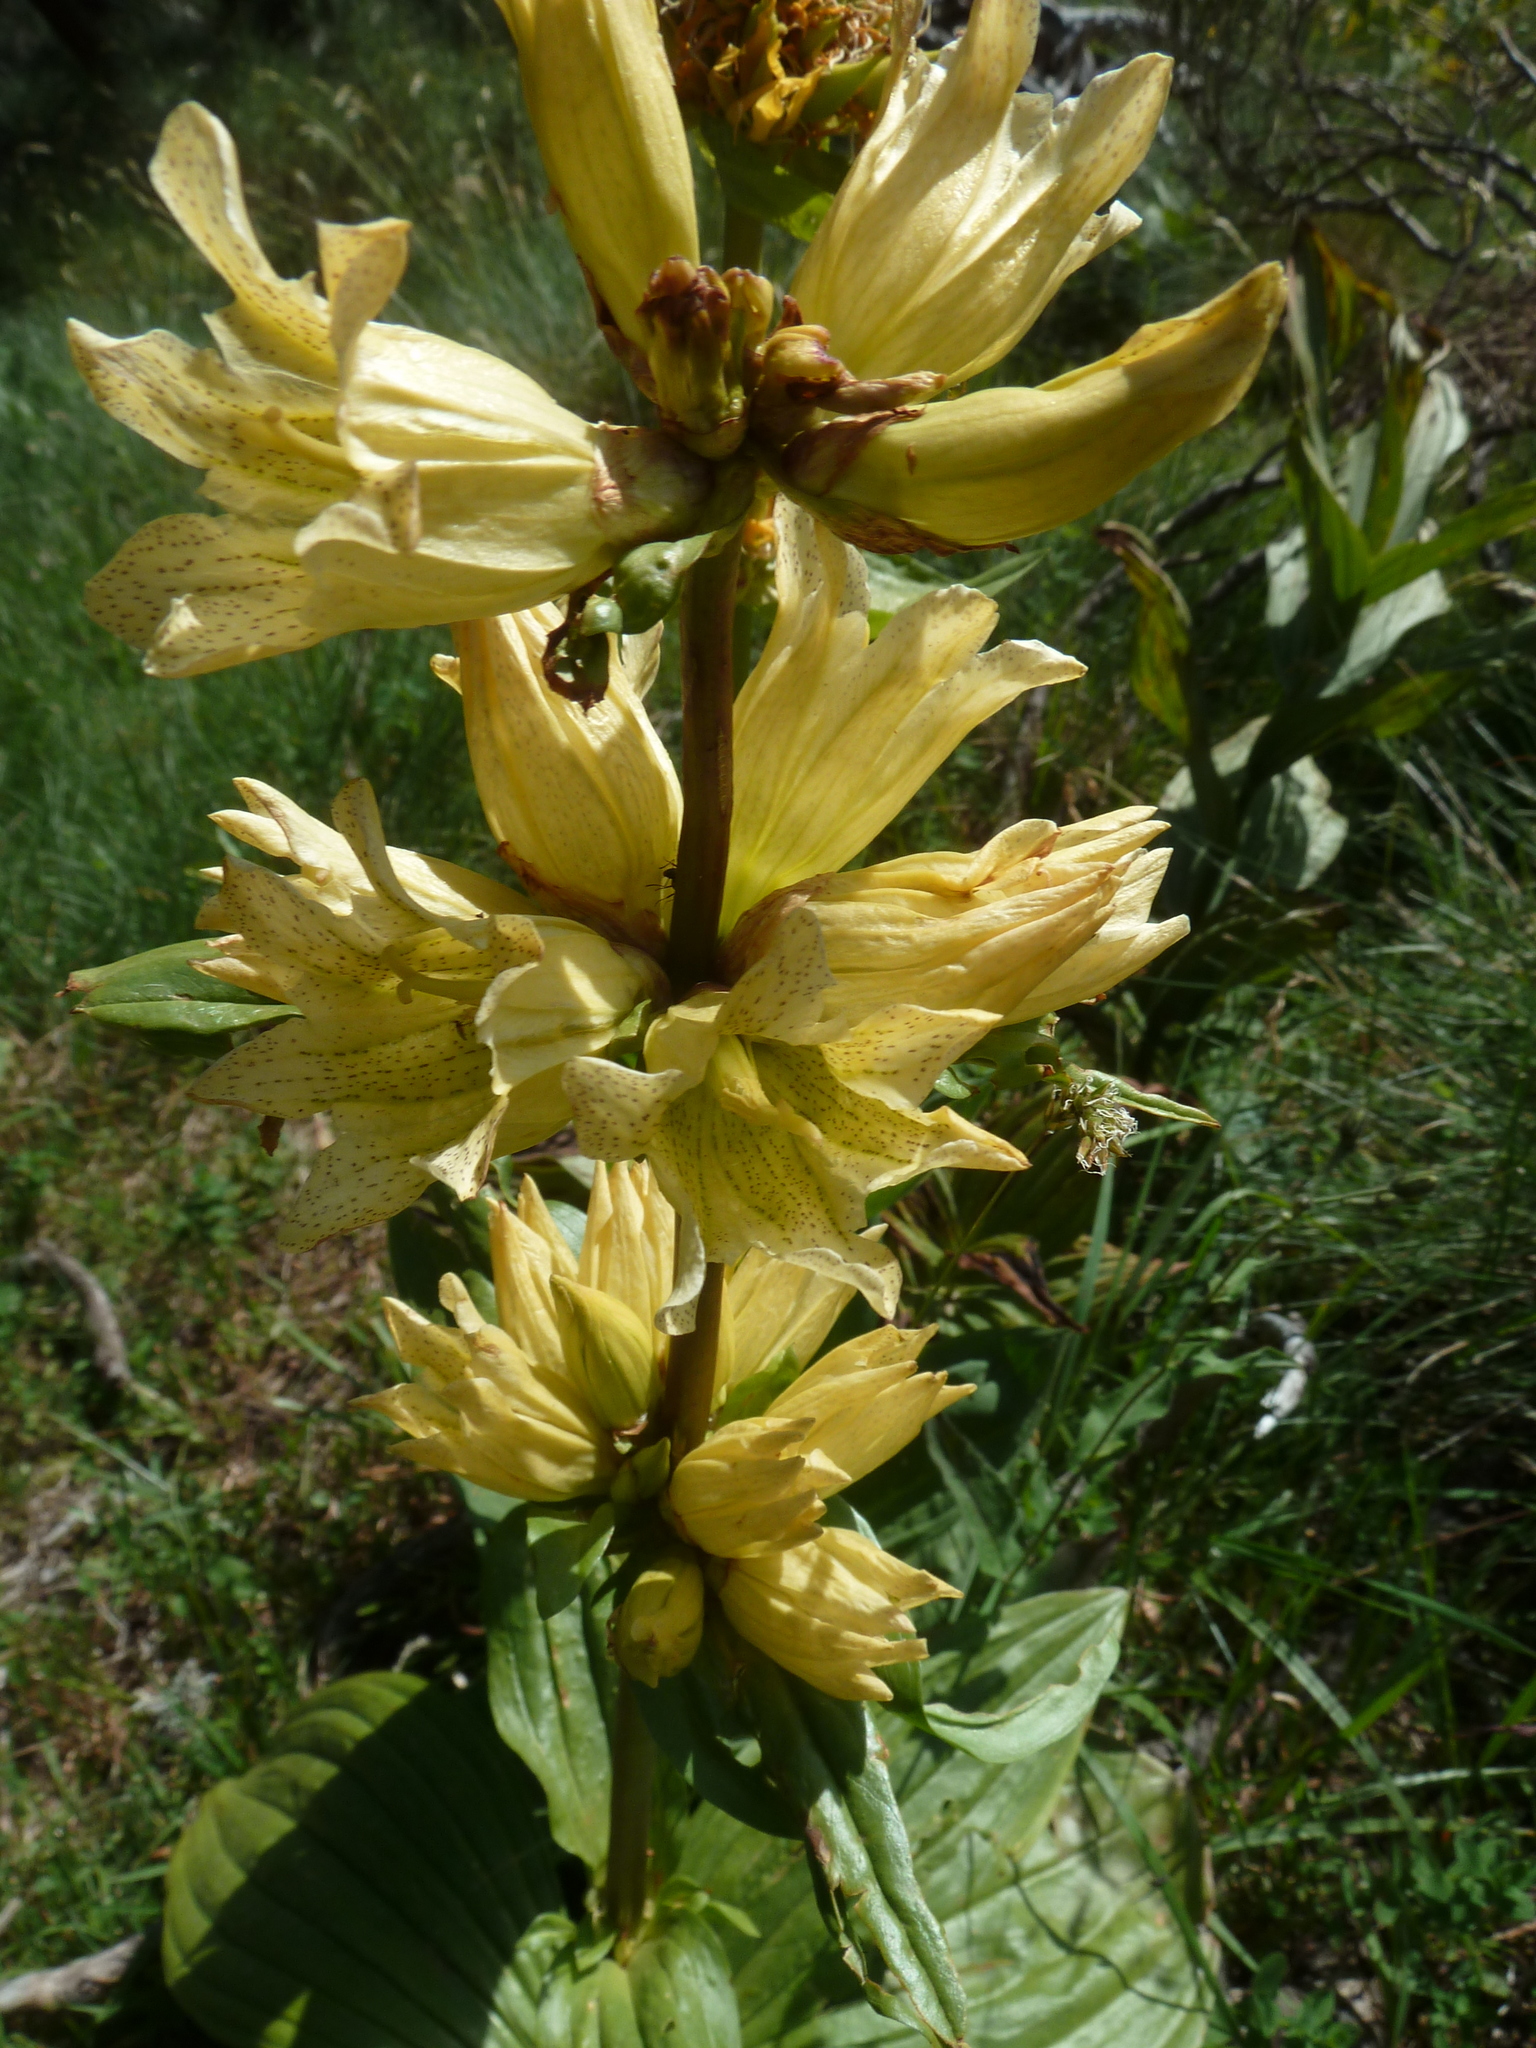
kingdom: Plantae
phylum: Tracheophyta
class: Magnoliopsida
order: Gentianales
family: Gentianaceae
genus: Gentiana
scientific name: Gentiana burseri
